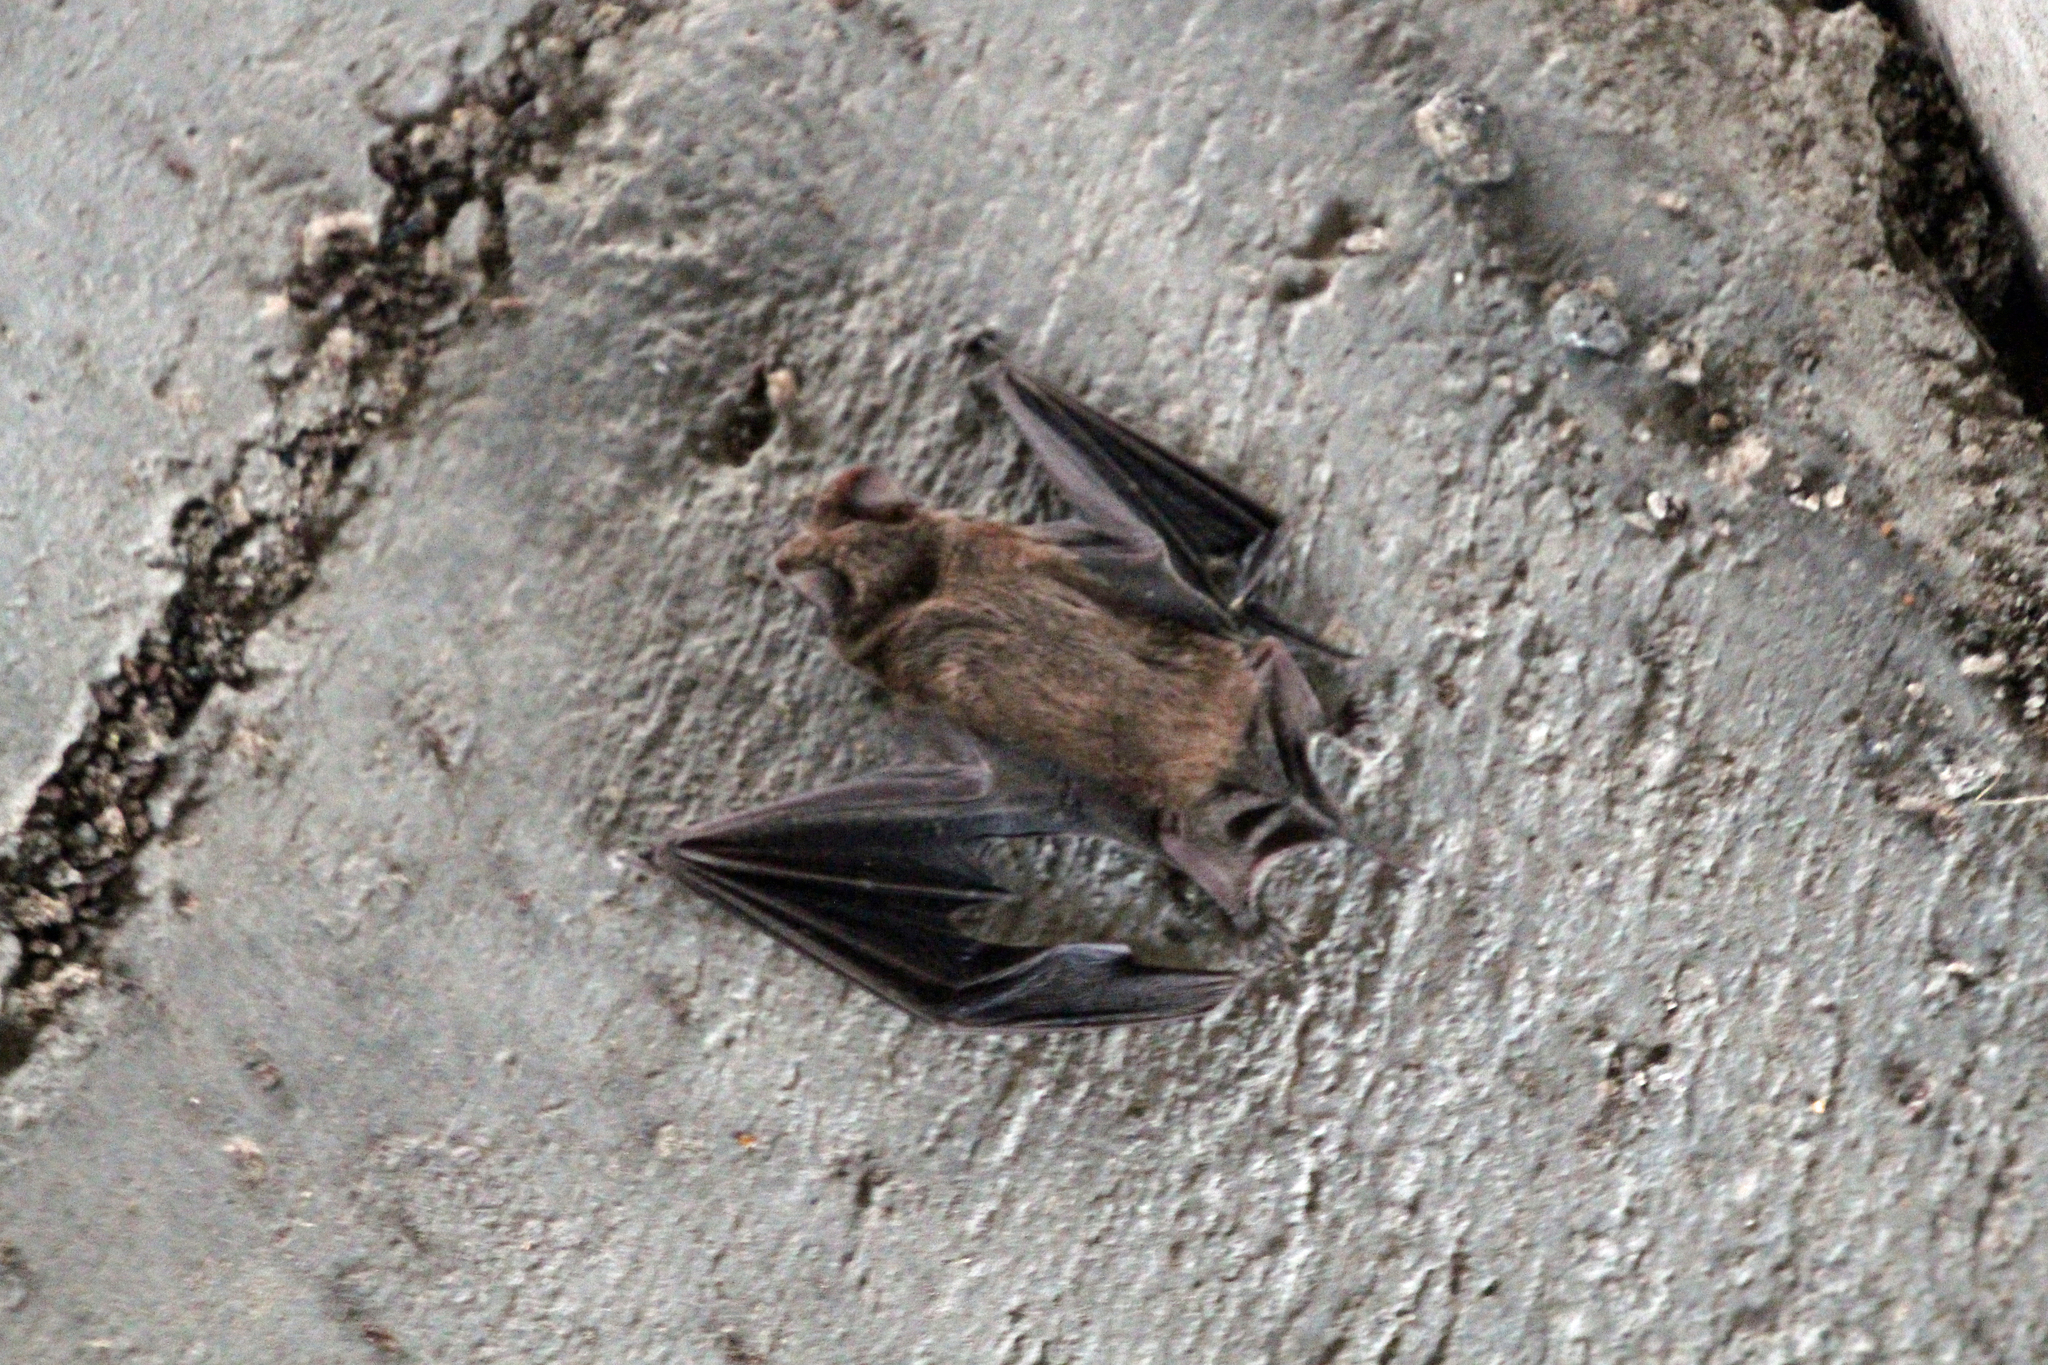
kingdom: Animalia
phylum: Chordata
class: Mammalia
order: Chiroptera
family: Molossidae
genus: Tadarida
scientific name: Tadarida brasiliensis
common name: Mexican free-tailed bat
